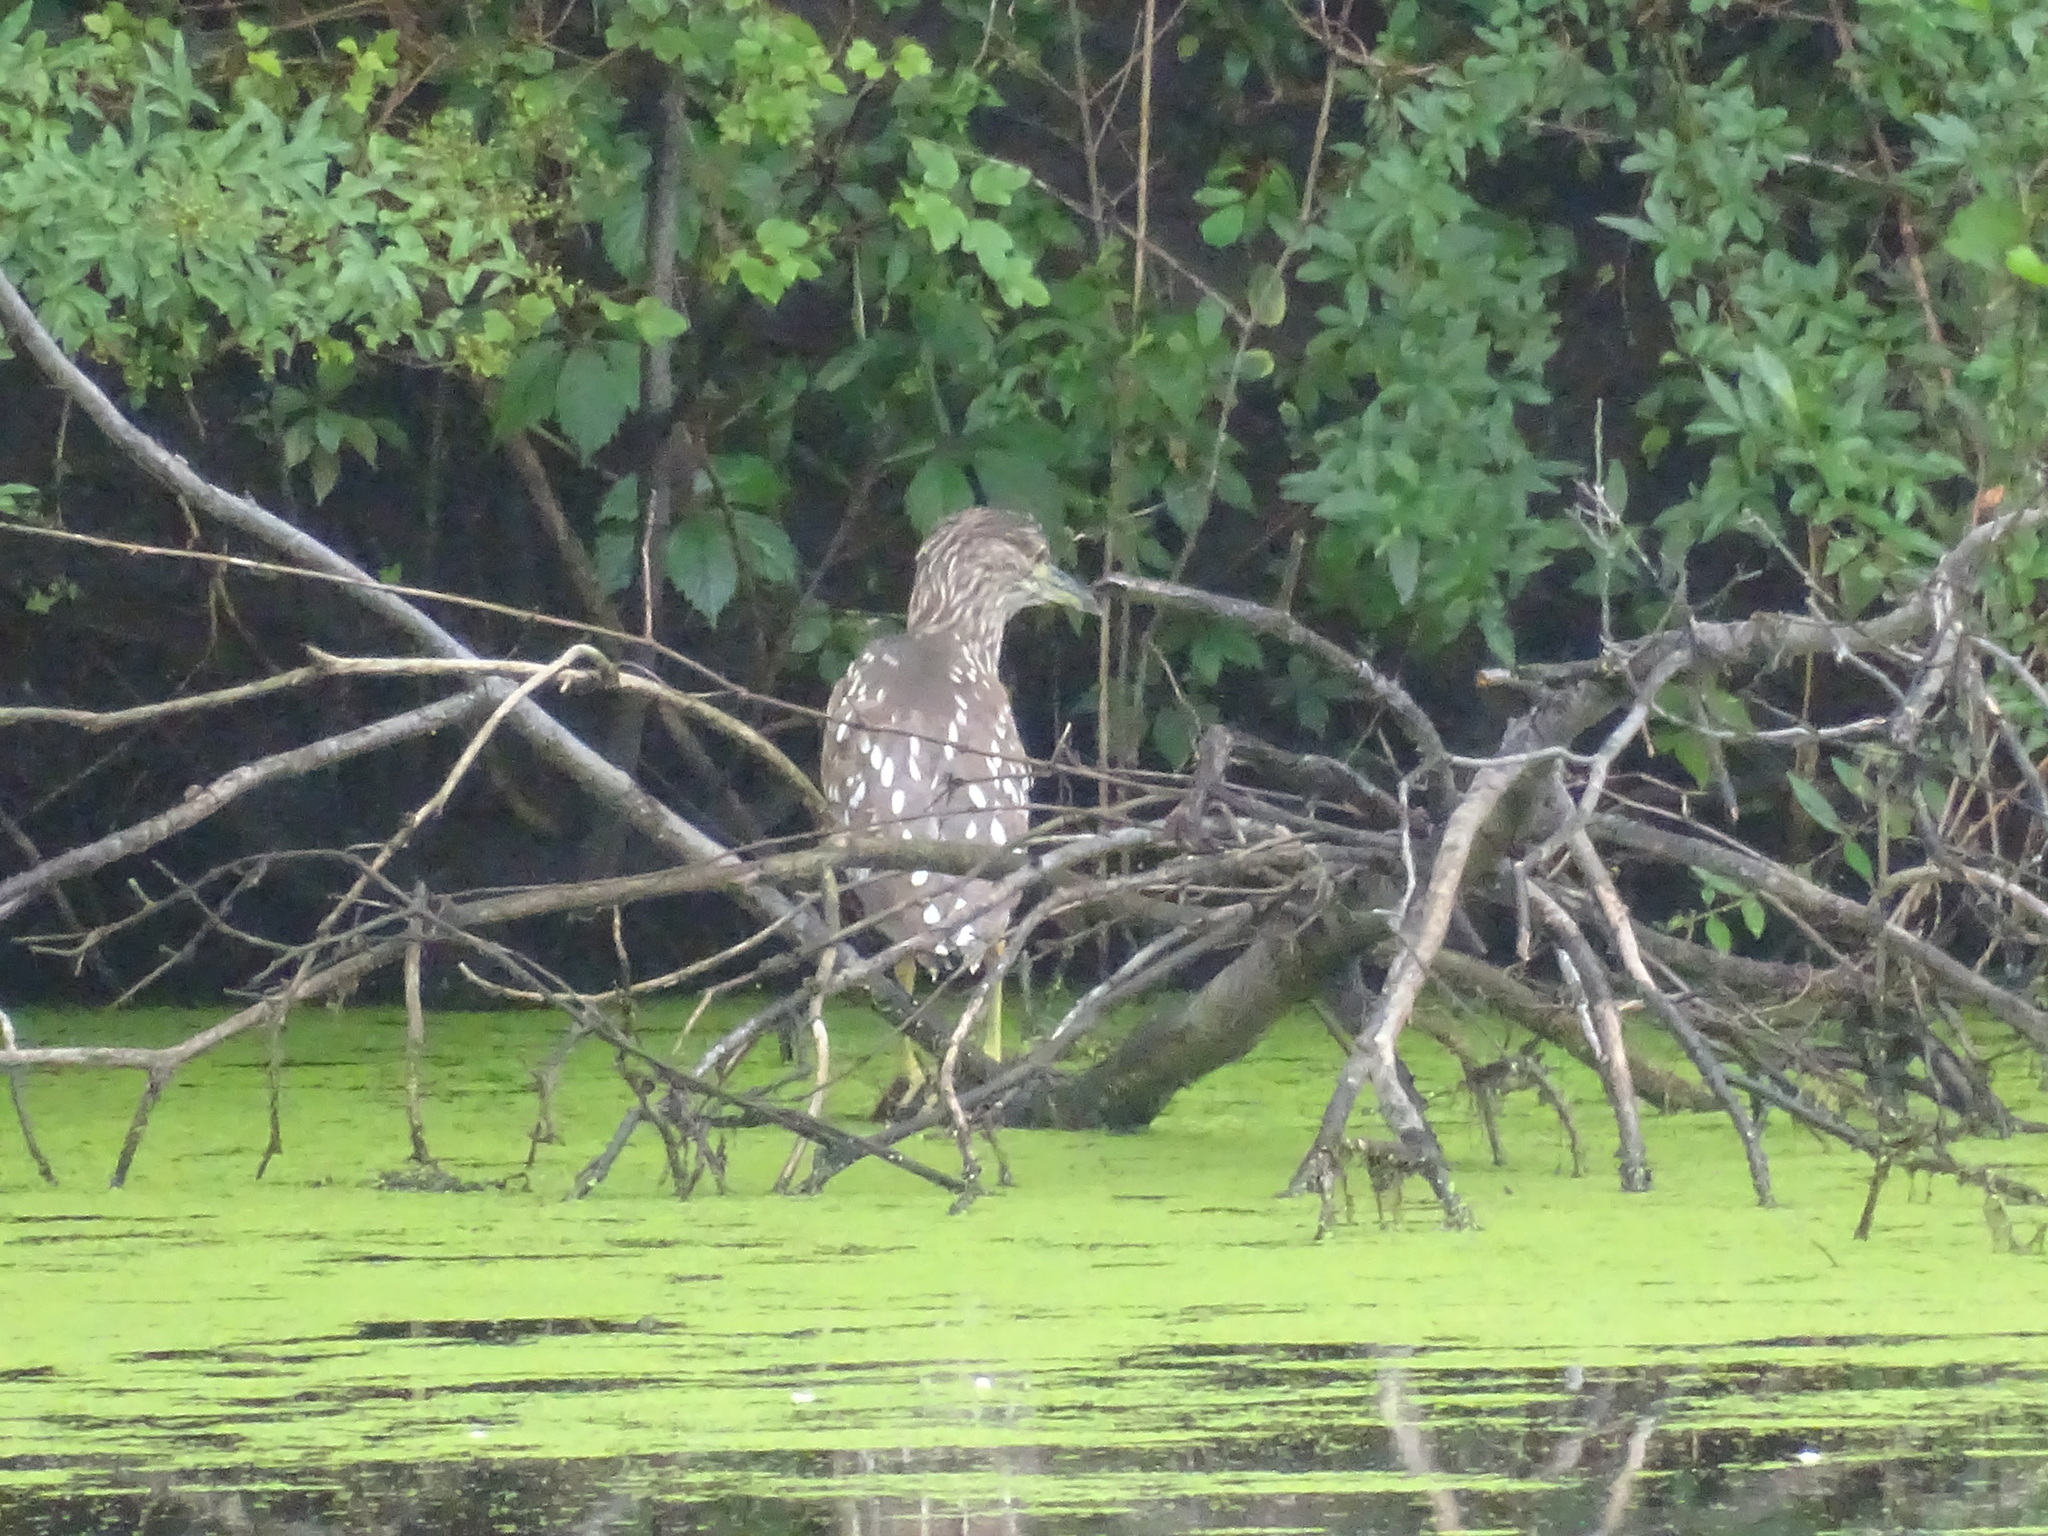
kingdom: Animalia
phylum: Chordata
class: Aves
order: Pelecaniformes
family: Ardeidae
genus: Nycticorax
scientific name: Nycticorax nycticorax
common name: Black-crowned night heron
